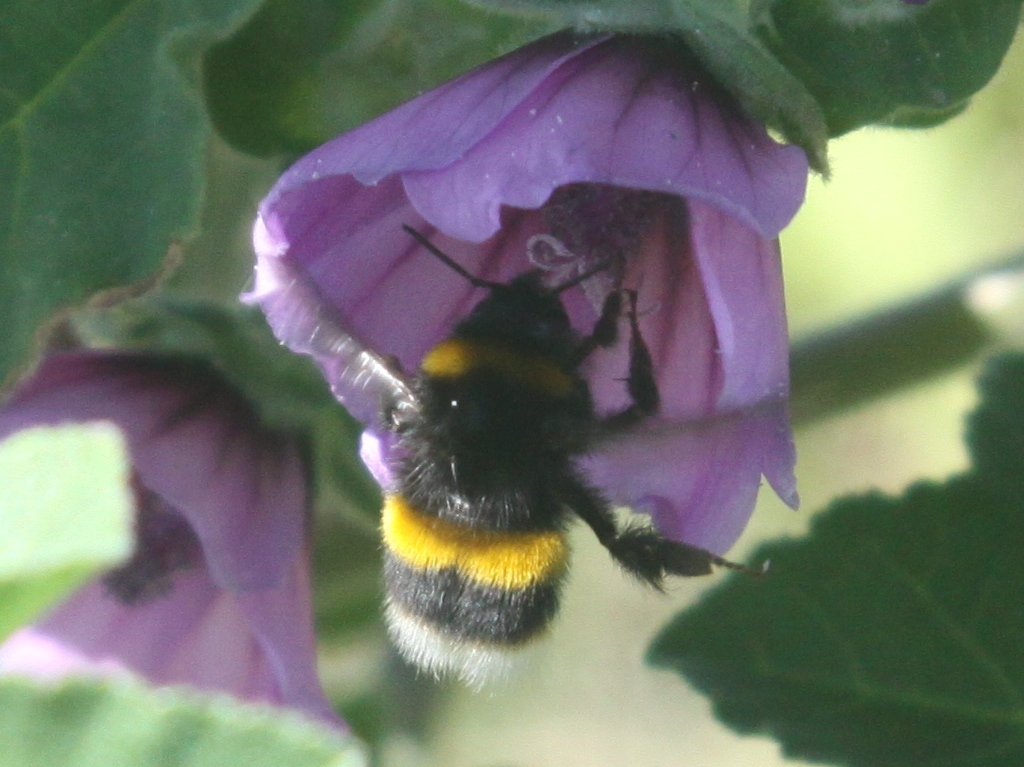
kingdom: Animalia
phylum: Arthropoda
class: Insecta
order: Hymenoptera
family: Apidae
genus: Bombus
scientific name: Bombus terrestris
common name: Buff-tailed bumblebee
